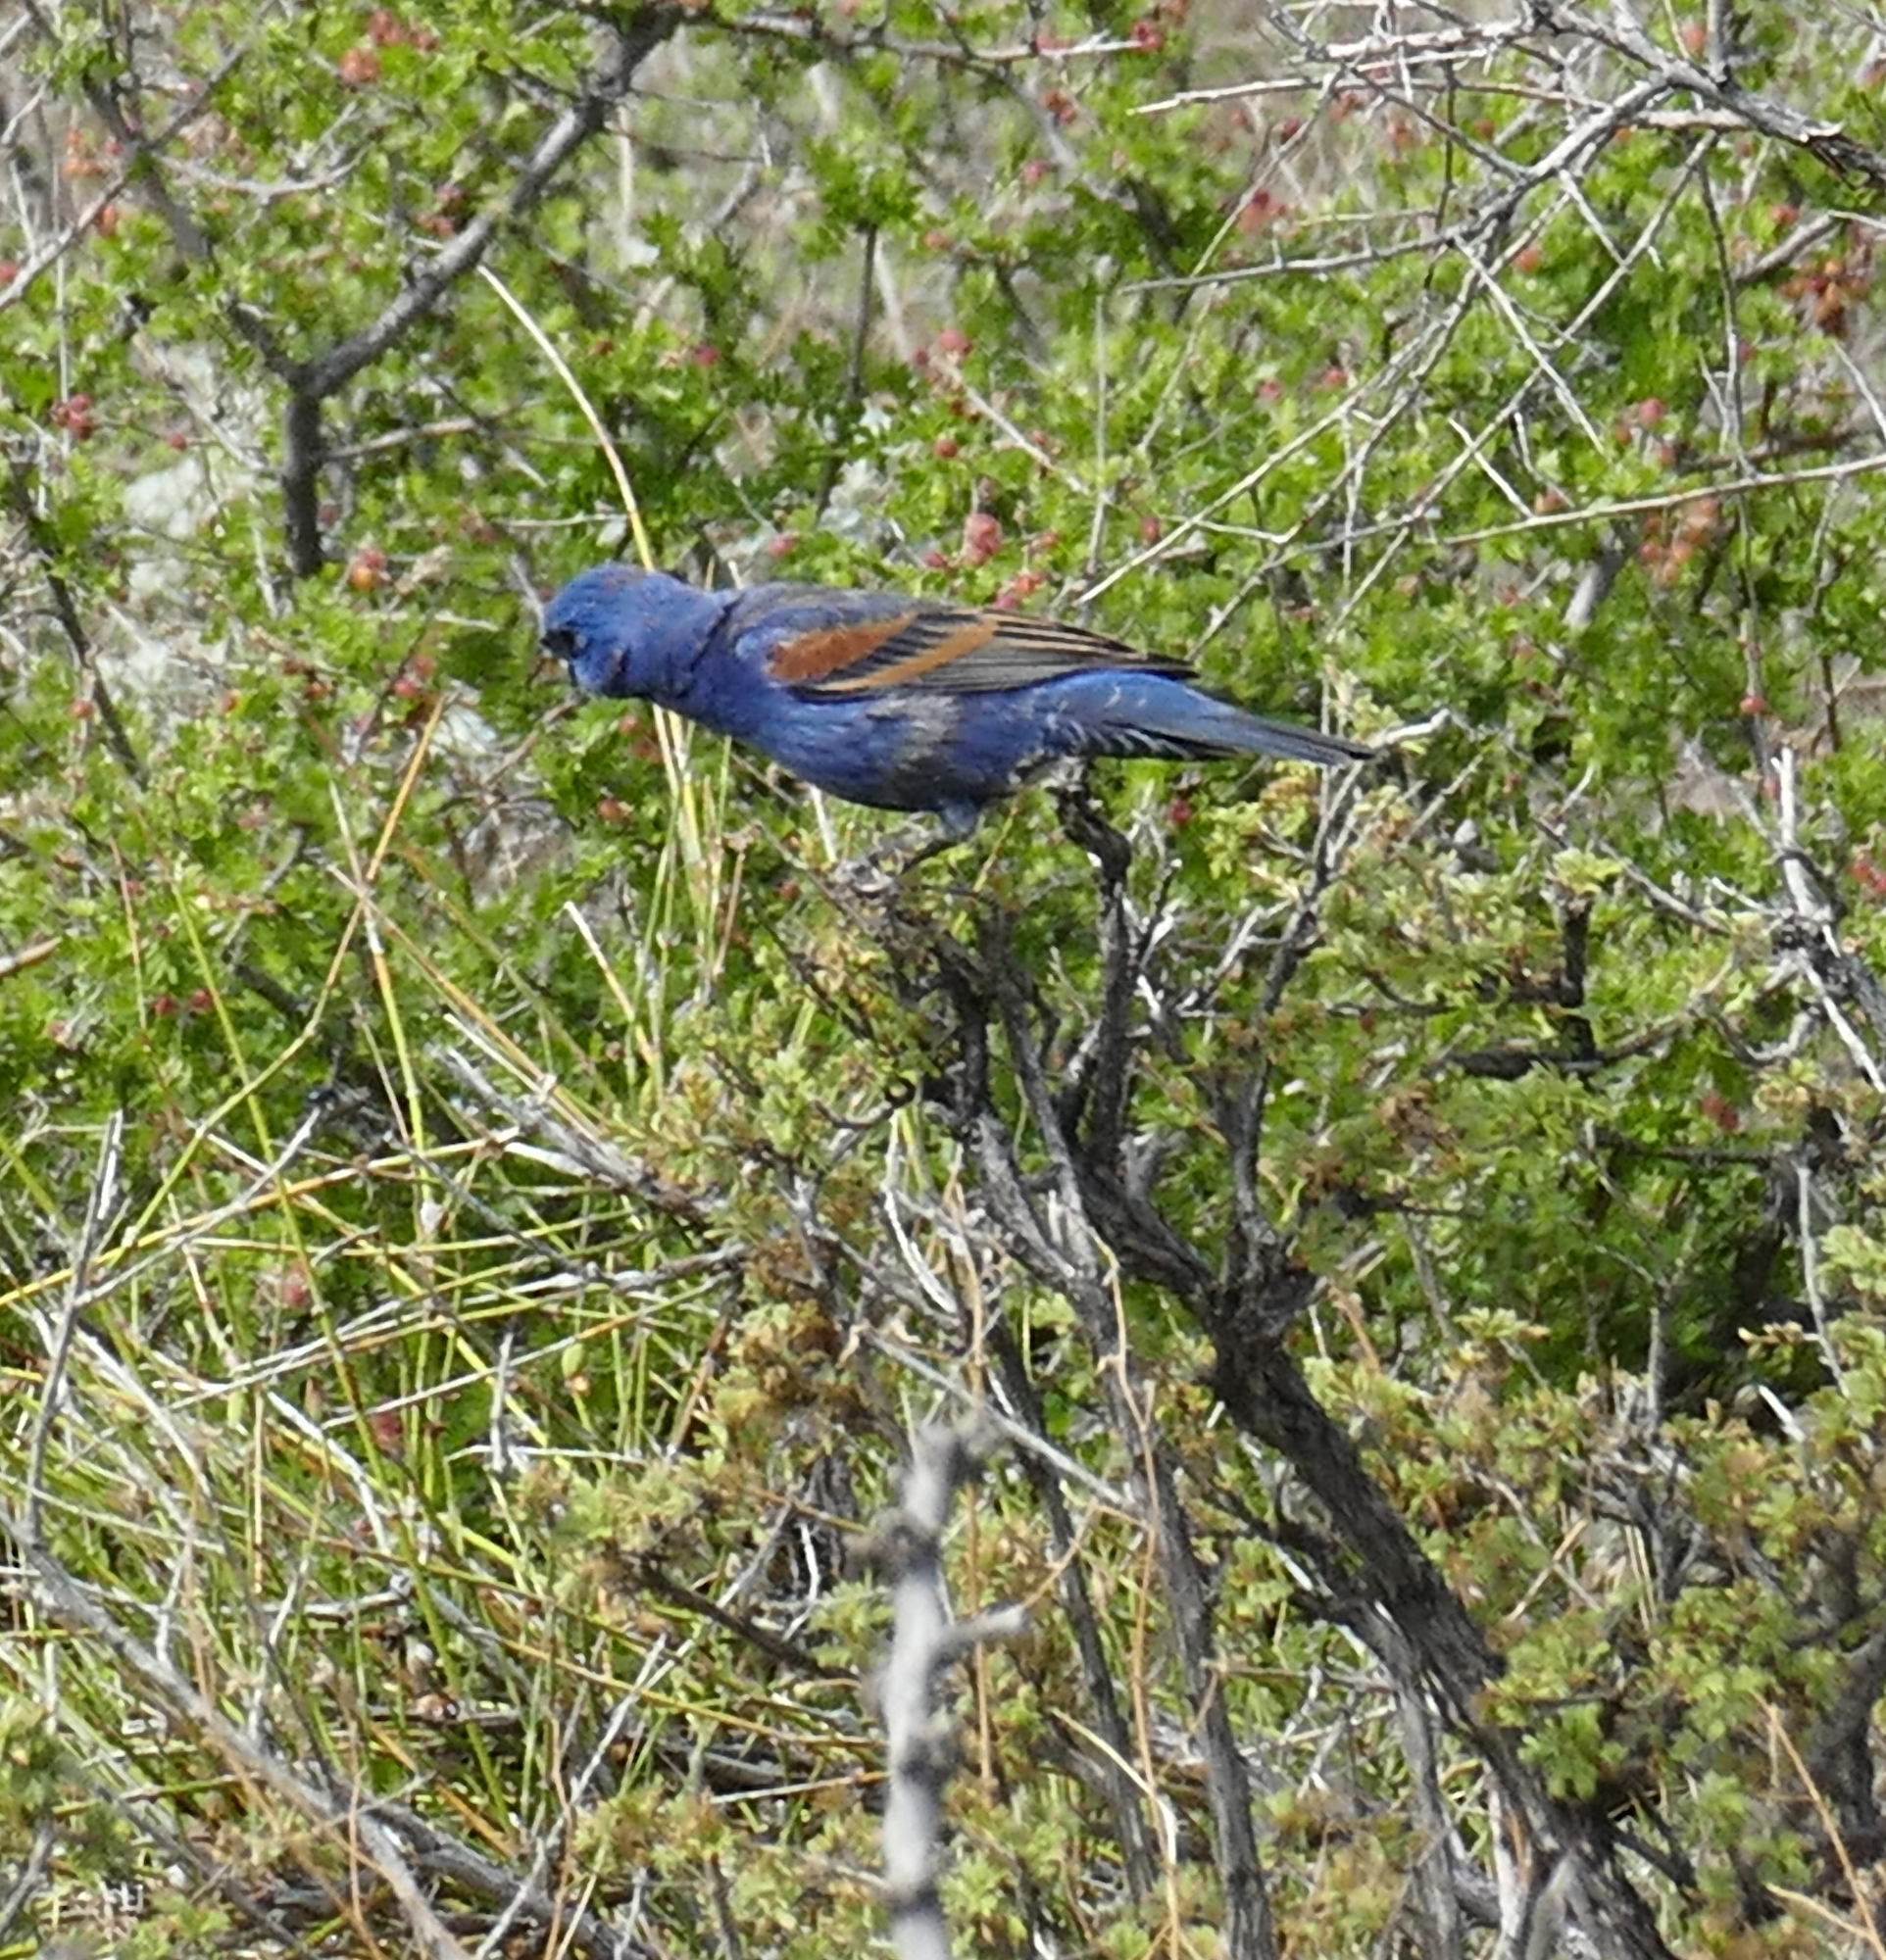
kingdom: Animalia
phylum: Chordata
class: Aves
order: Passeriformes
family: Cardinalidae
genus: Passerina
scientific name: Passerina caerulea
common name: Blue grosbeak
